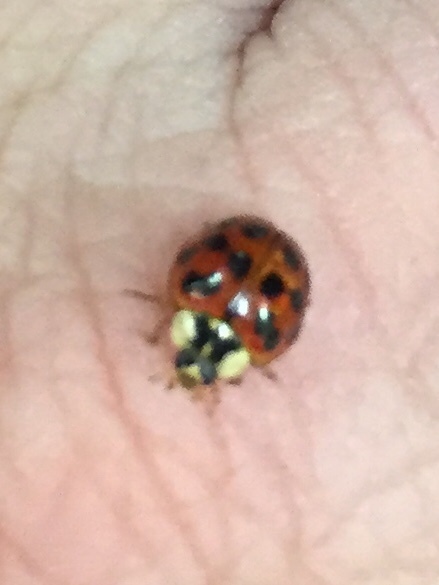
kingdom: Animalia
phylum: Arthropoda
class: Insecta
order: Coleoptera
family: Coccinellidae
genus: Harmonia
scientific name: Harmonia axyridis
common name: Harlequin ladybird
